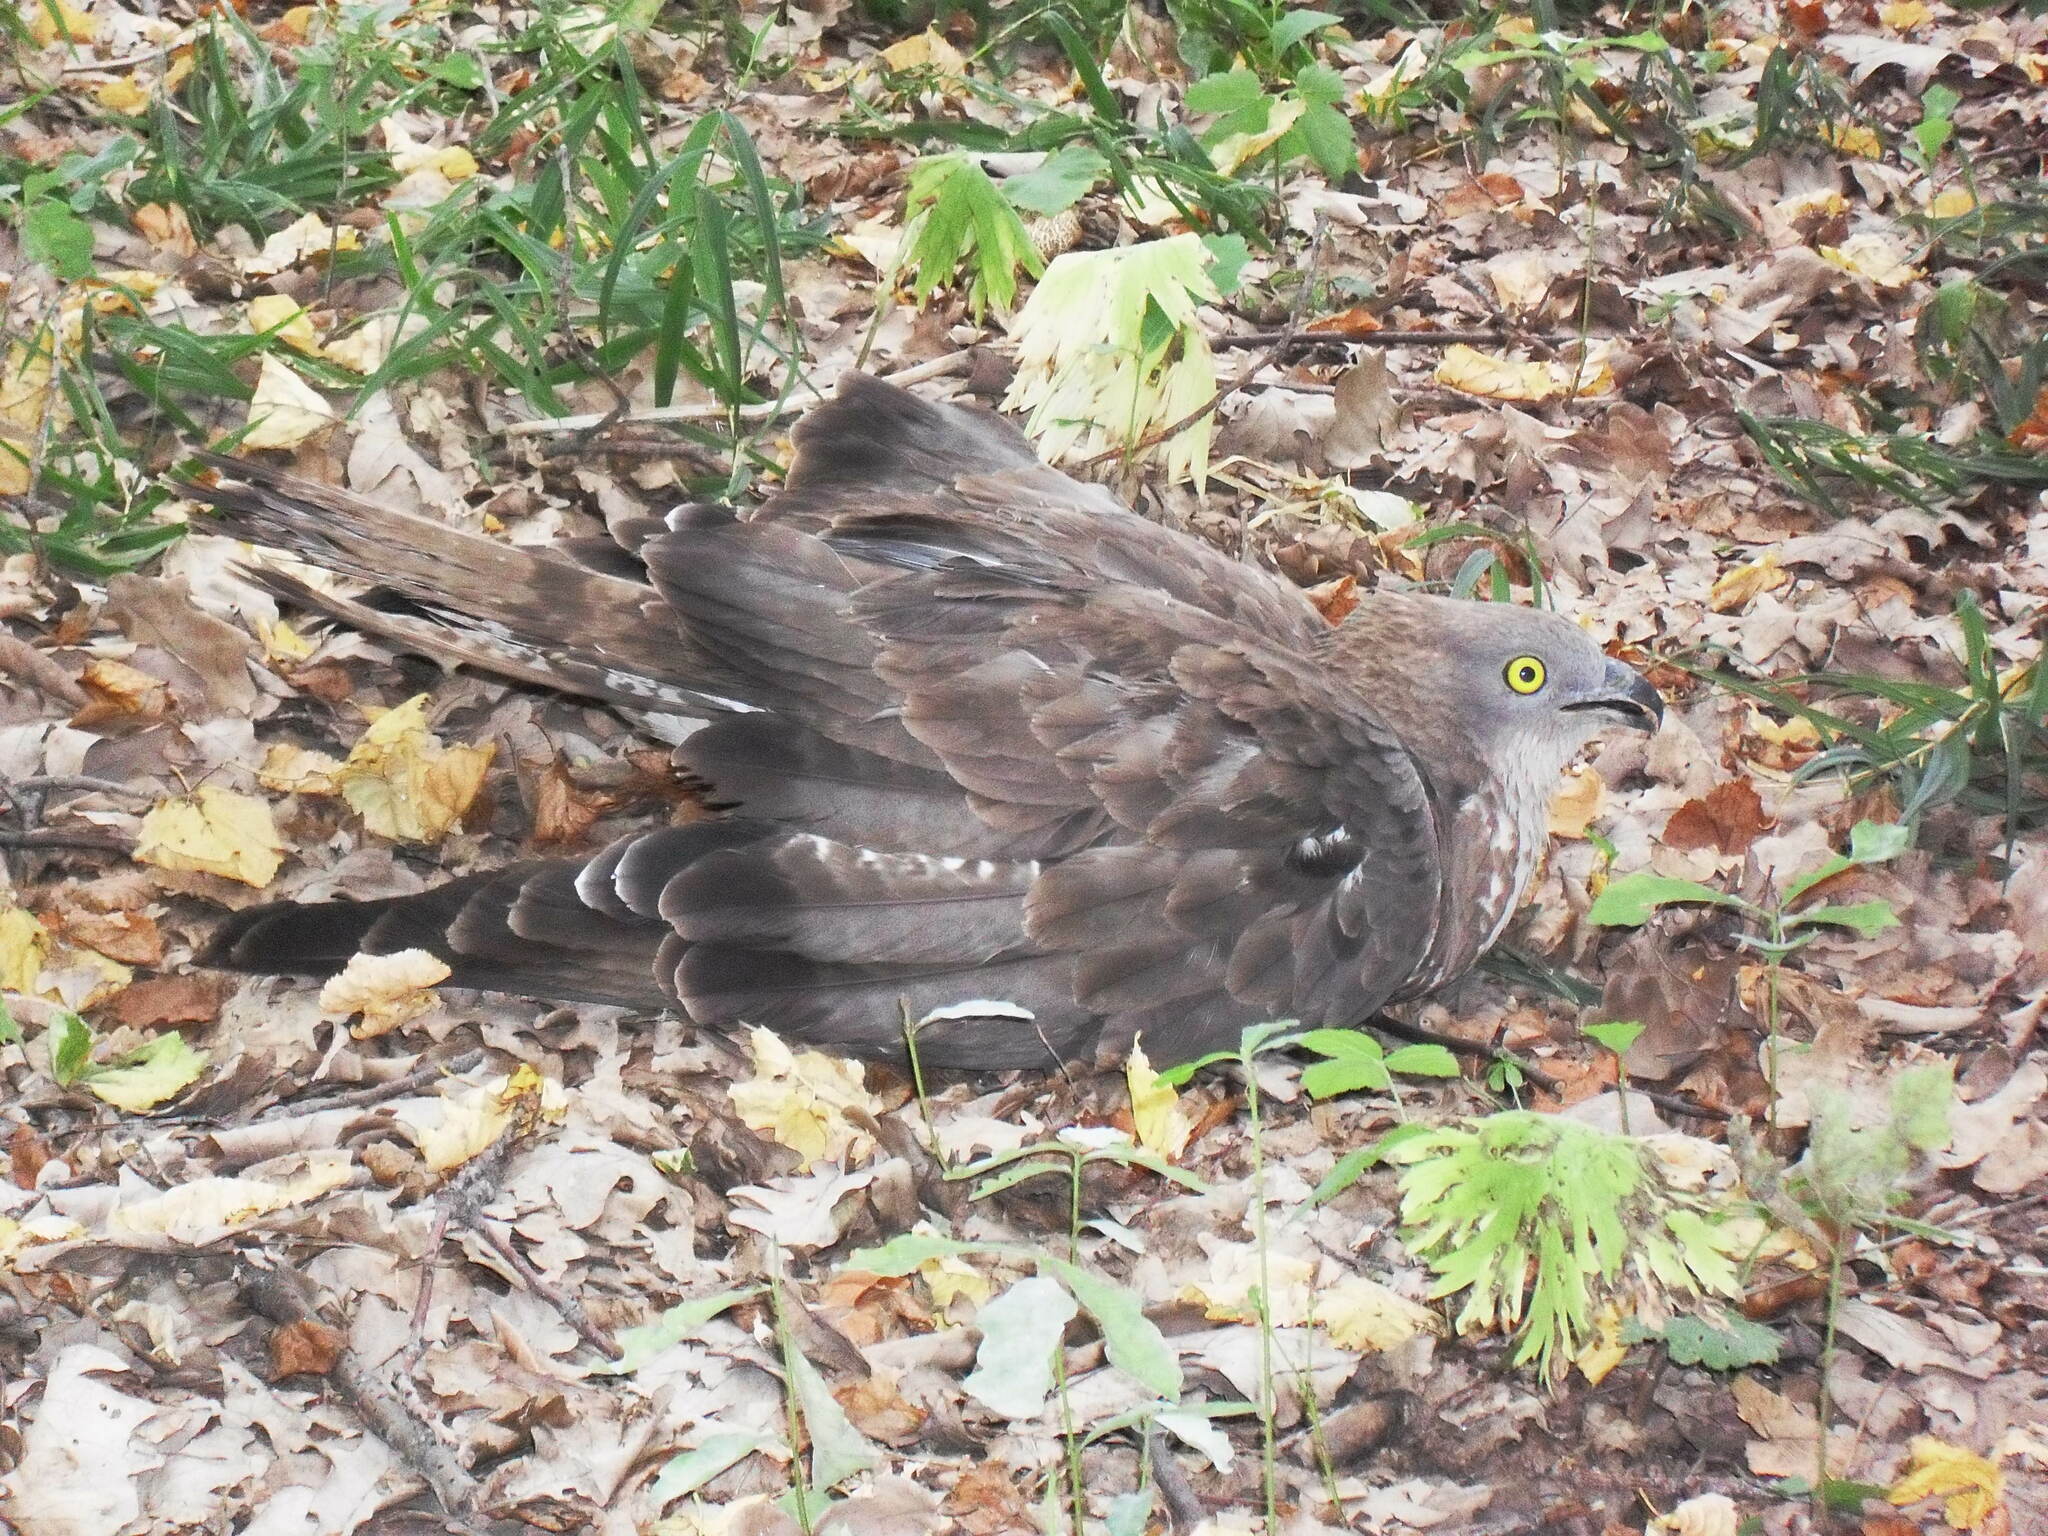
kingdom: Animalia
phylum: Chordata
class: Aves
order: Accipitriformes
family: Accipitridae
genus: Pernis
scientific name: Pernis apivorus
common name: European honey buzzard
